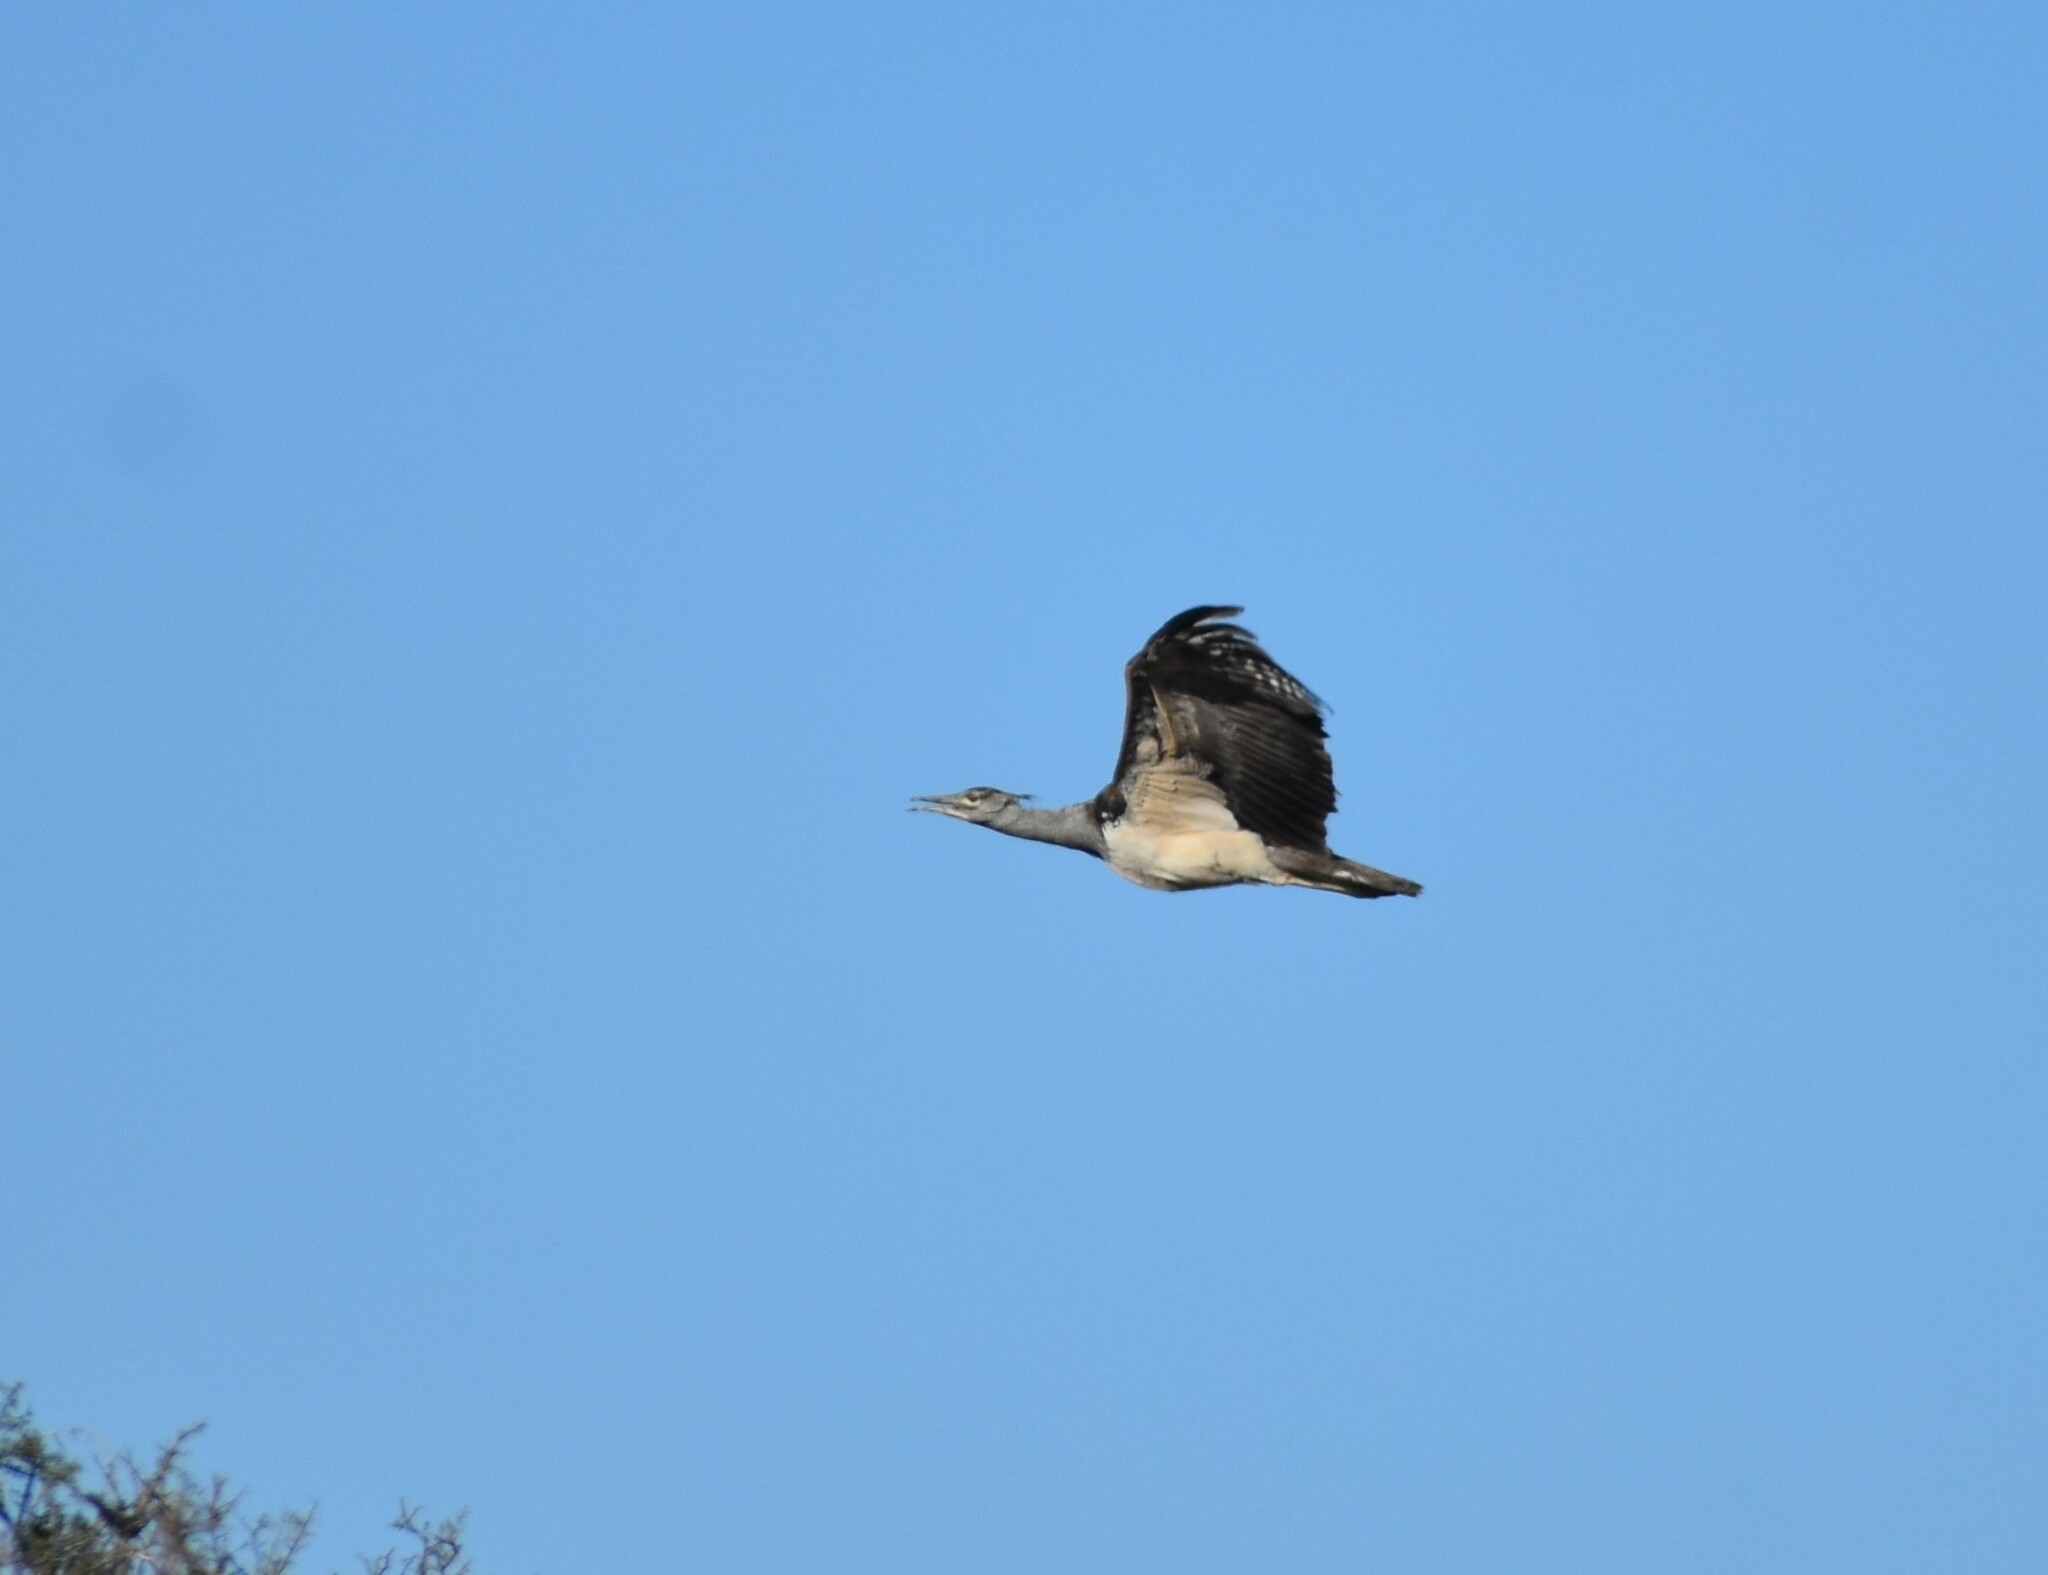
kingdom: Animalia
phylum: Chordata
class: Aves
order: Otidiformes
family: Otididae
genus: Ardeotis
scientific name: Ardeotis kori
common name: Kori bustard
